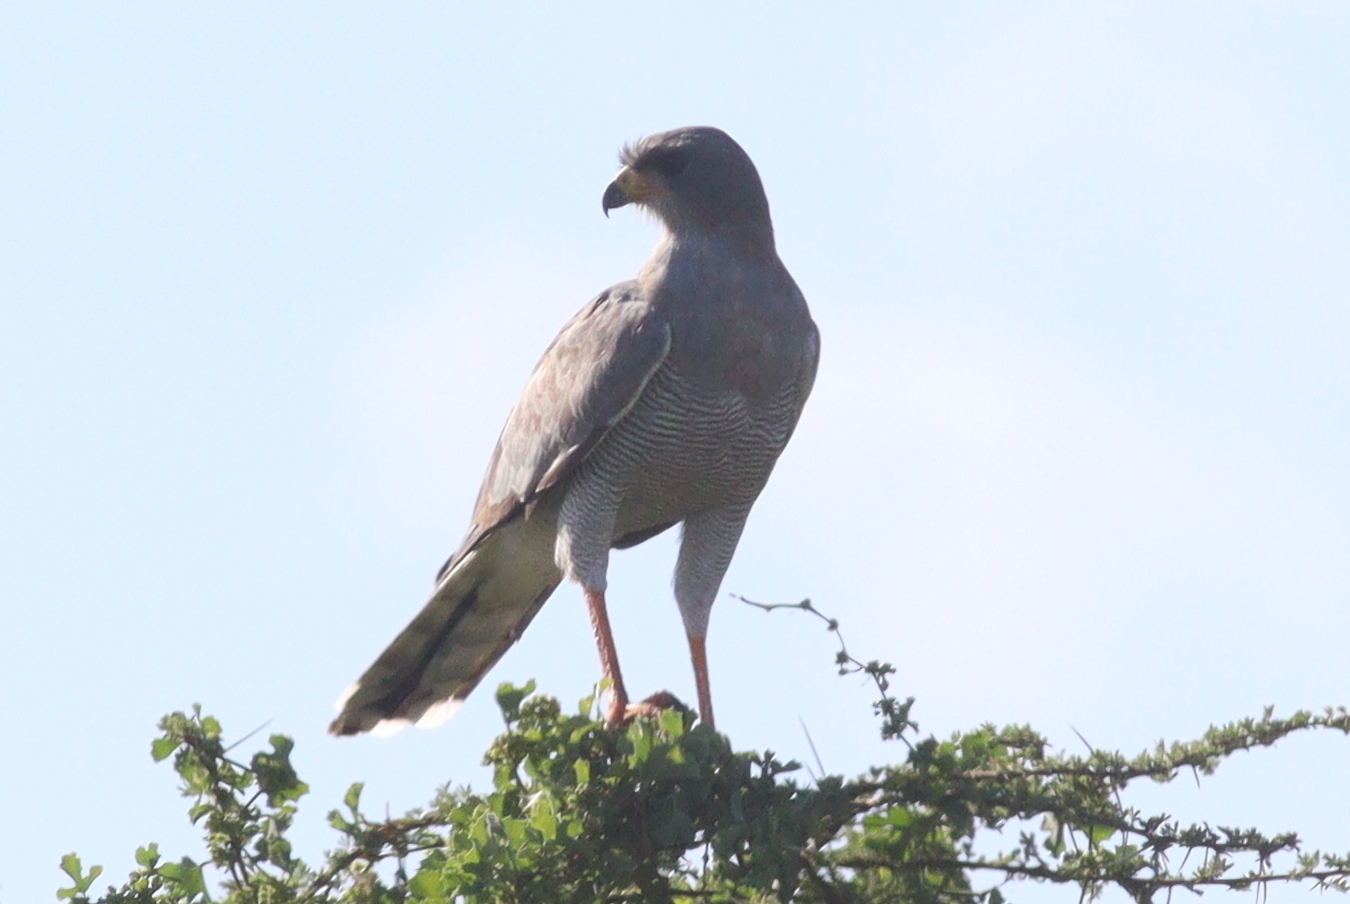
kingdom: Animalia
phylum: Chordata
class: Aves
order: Accipitriformes
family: Accipitridae
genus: Melierax
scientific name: Melierax poliopterus
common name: Eastern chanting goshawk
